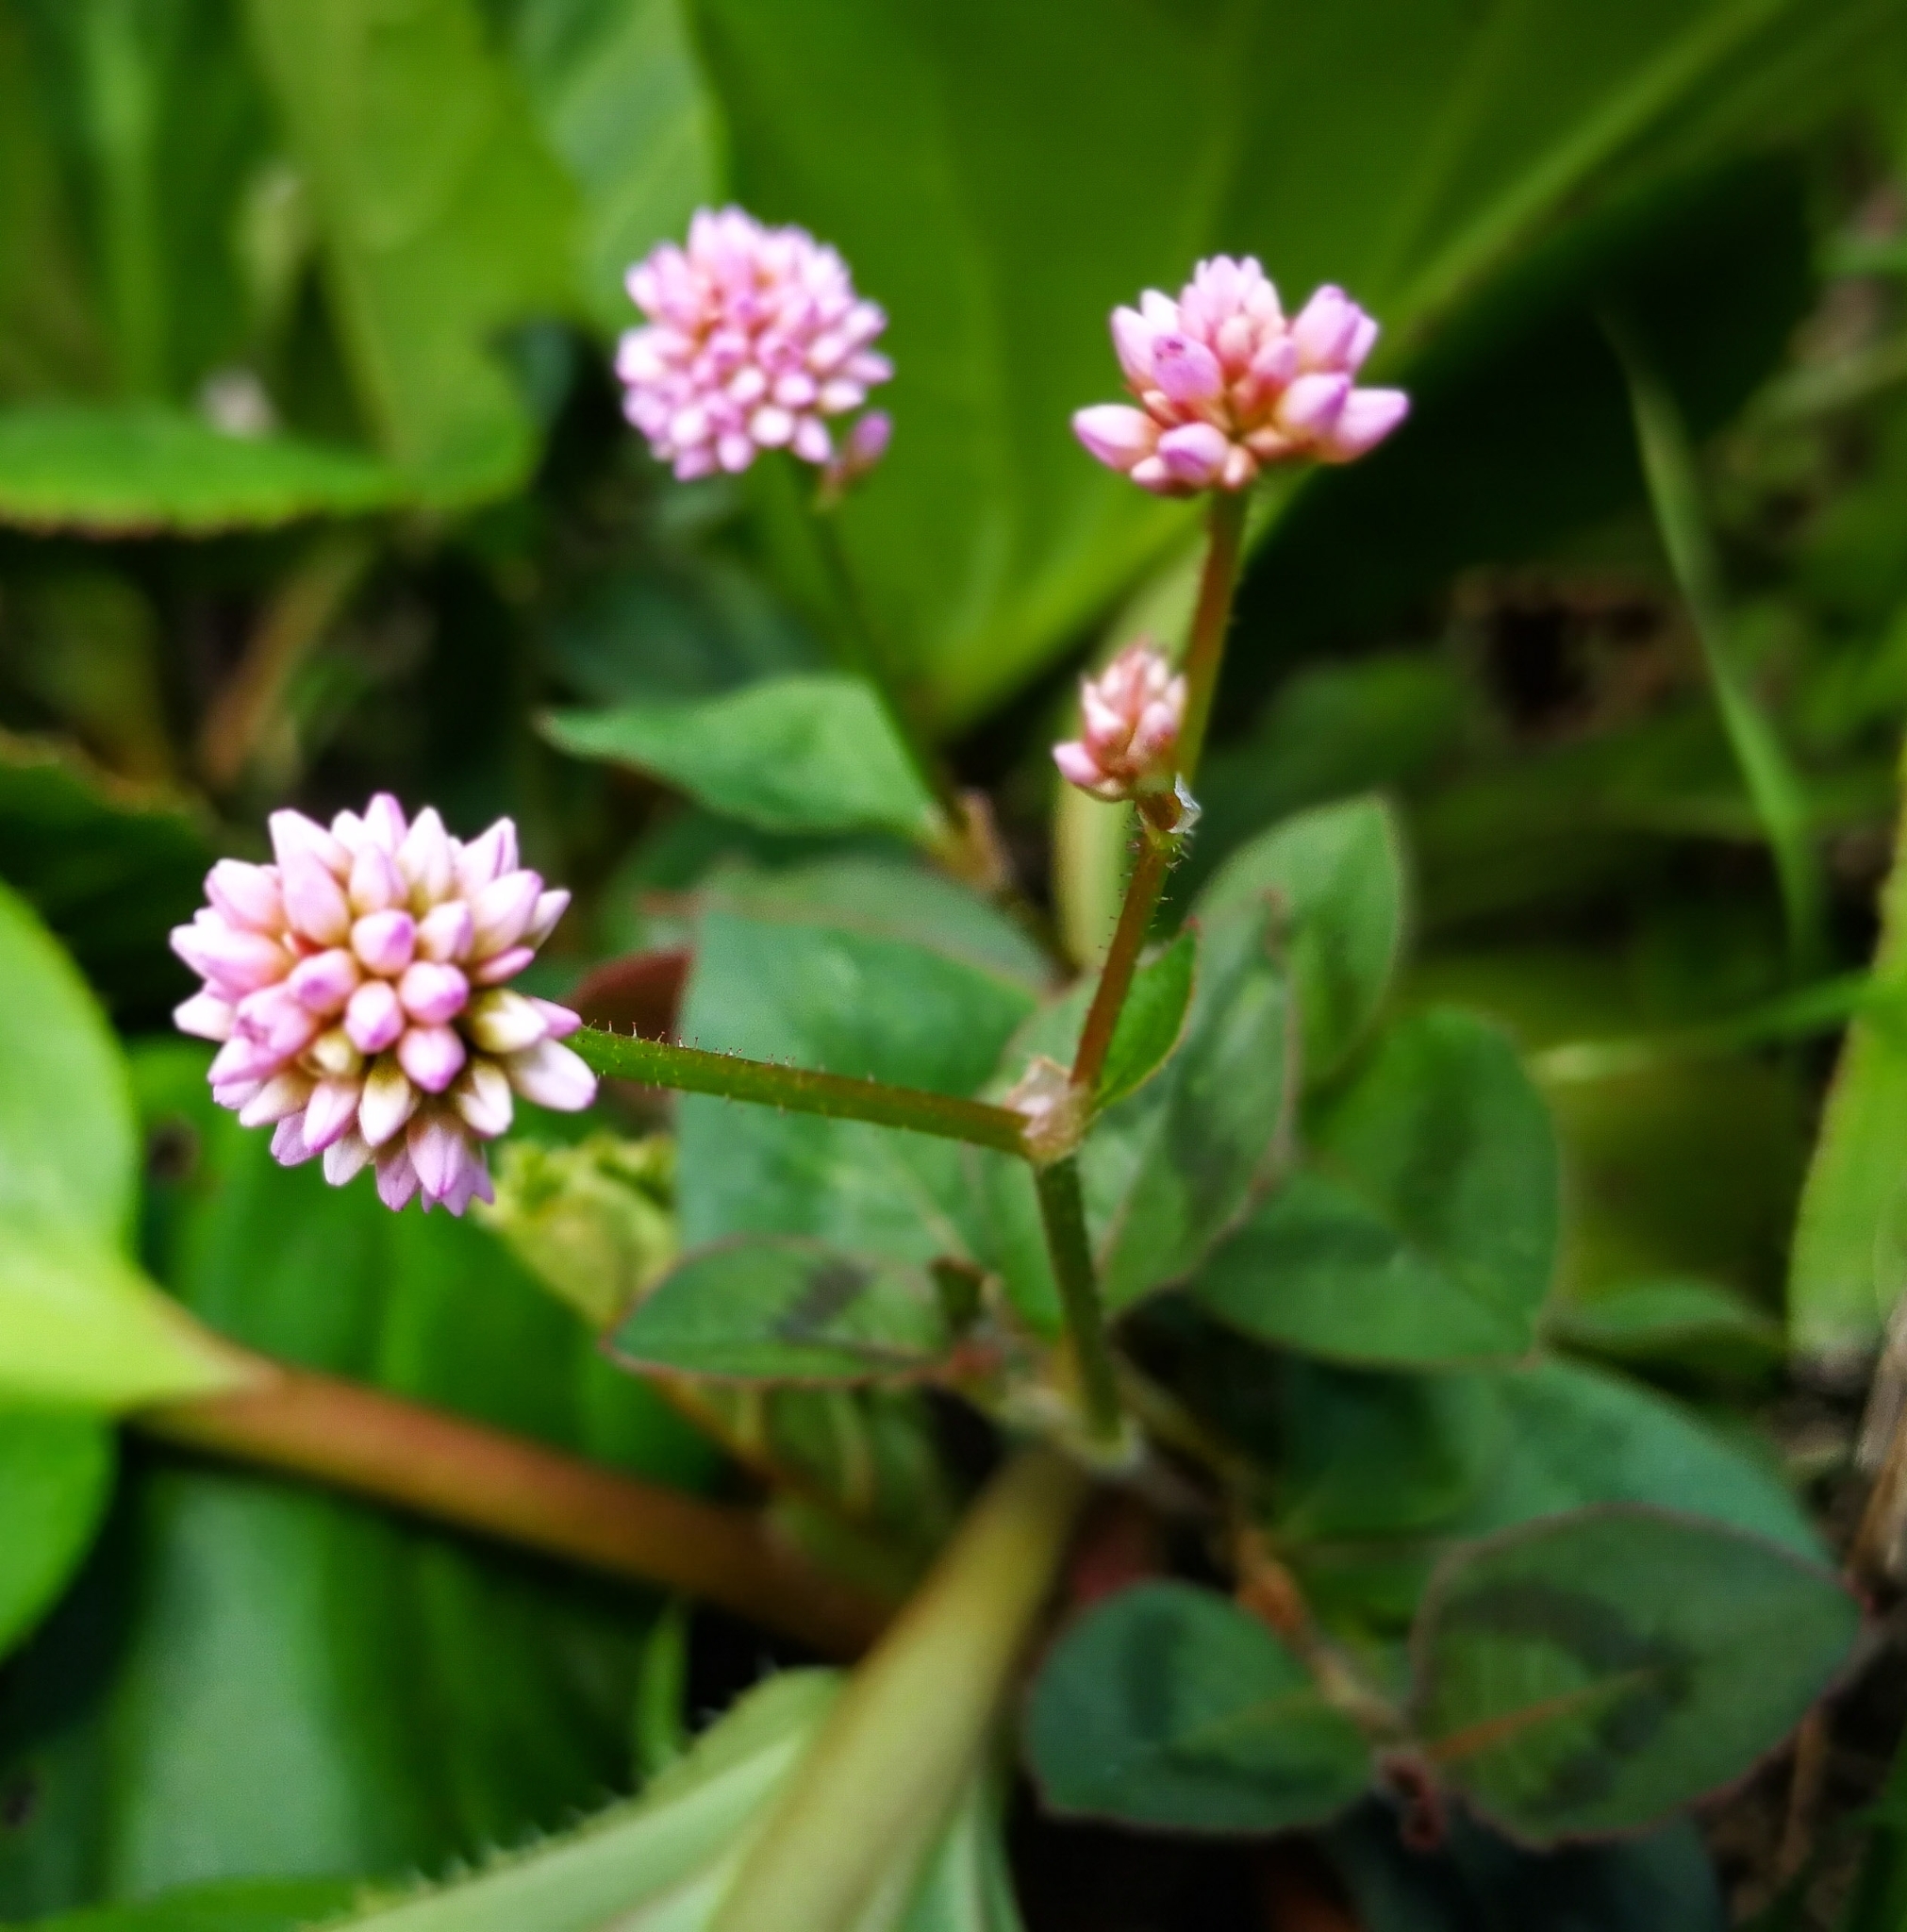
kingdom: Plantae
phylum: Tracheophyta
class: Magnoliopsida
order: Caryophyllales
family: Polygonaceae
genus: Persicaria
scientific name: Persicaria capitata
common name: Pinkhead smartweed
